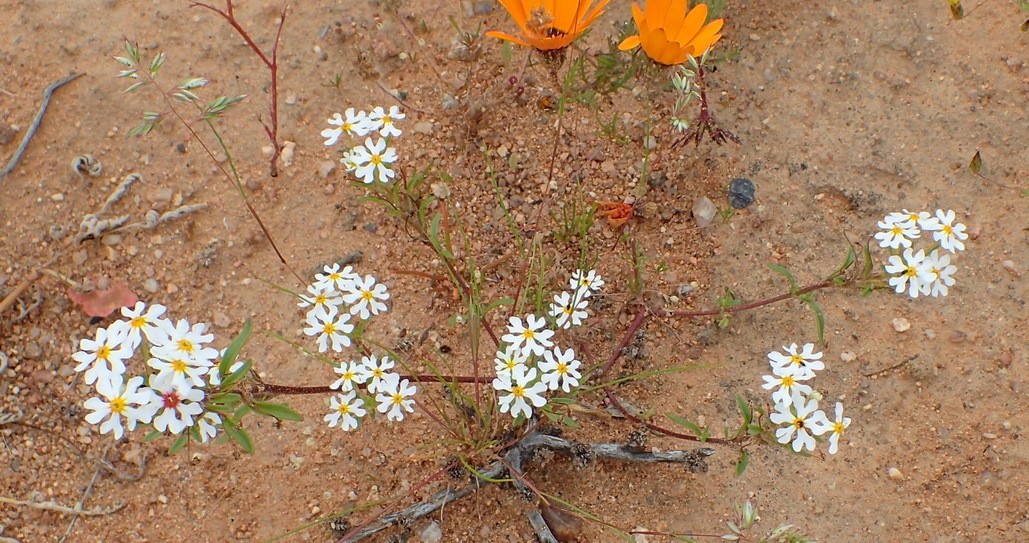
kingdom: Plantae
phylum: Tracheophyta
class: Magnoliopsida
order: Lamiales
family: Scrophulariaceae
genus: Zaluzianskya
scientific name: Zaluzianskya affinis
